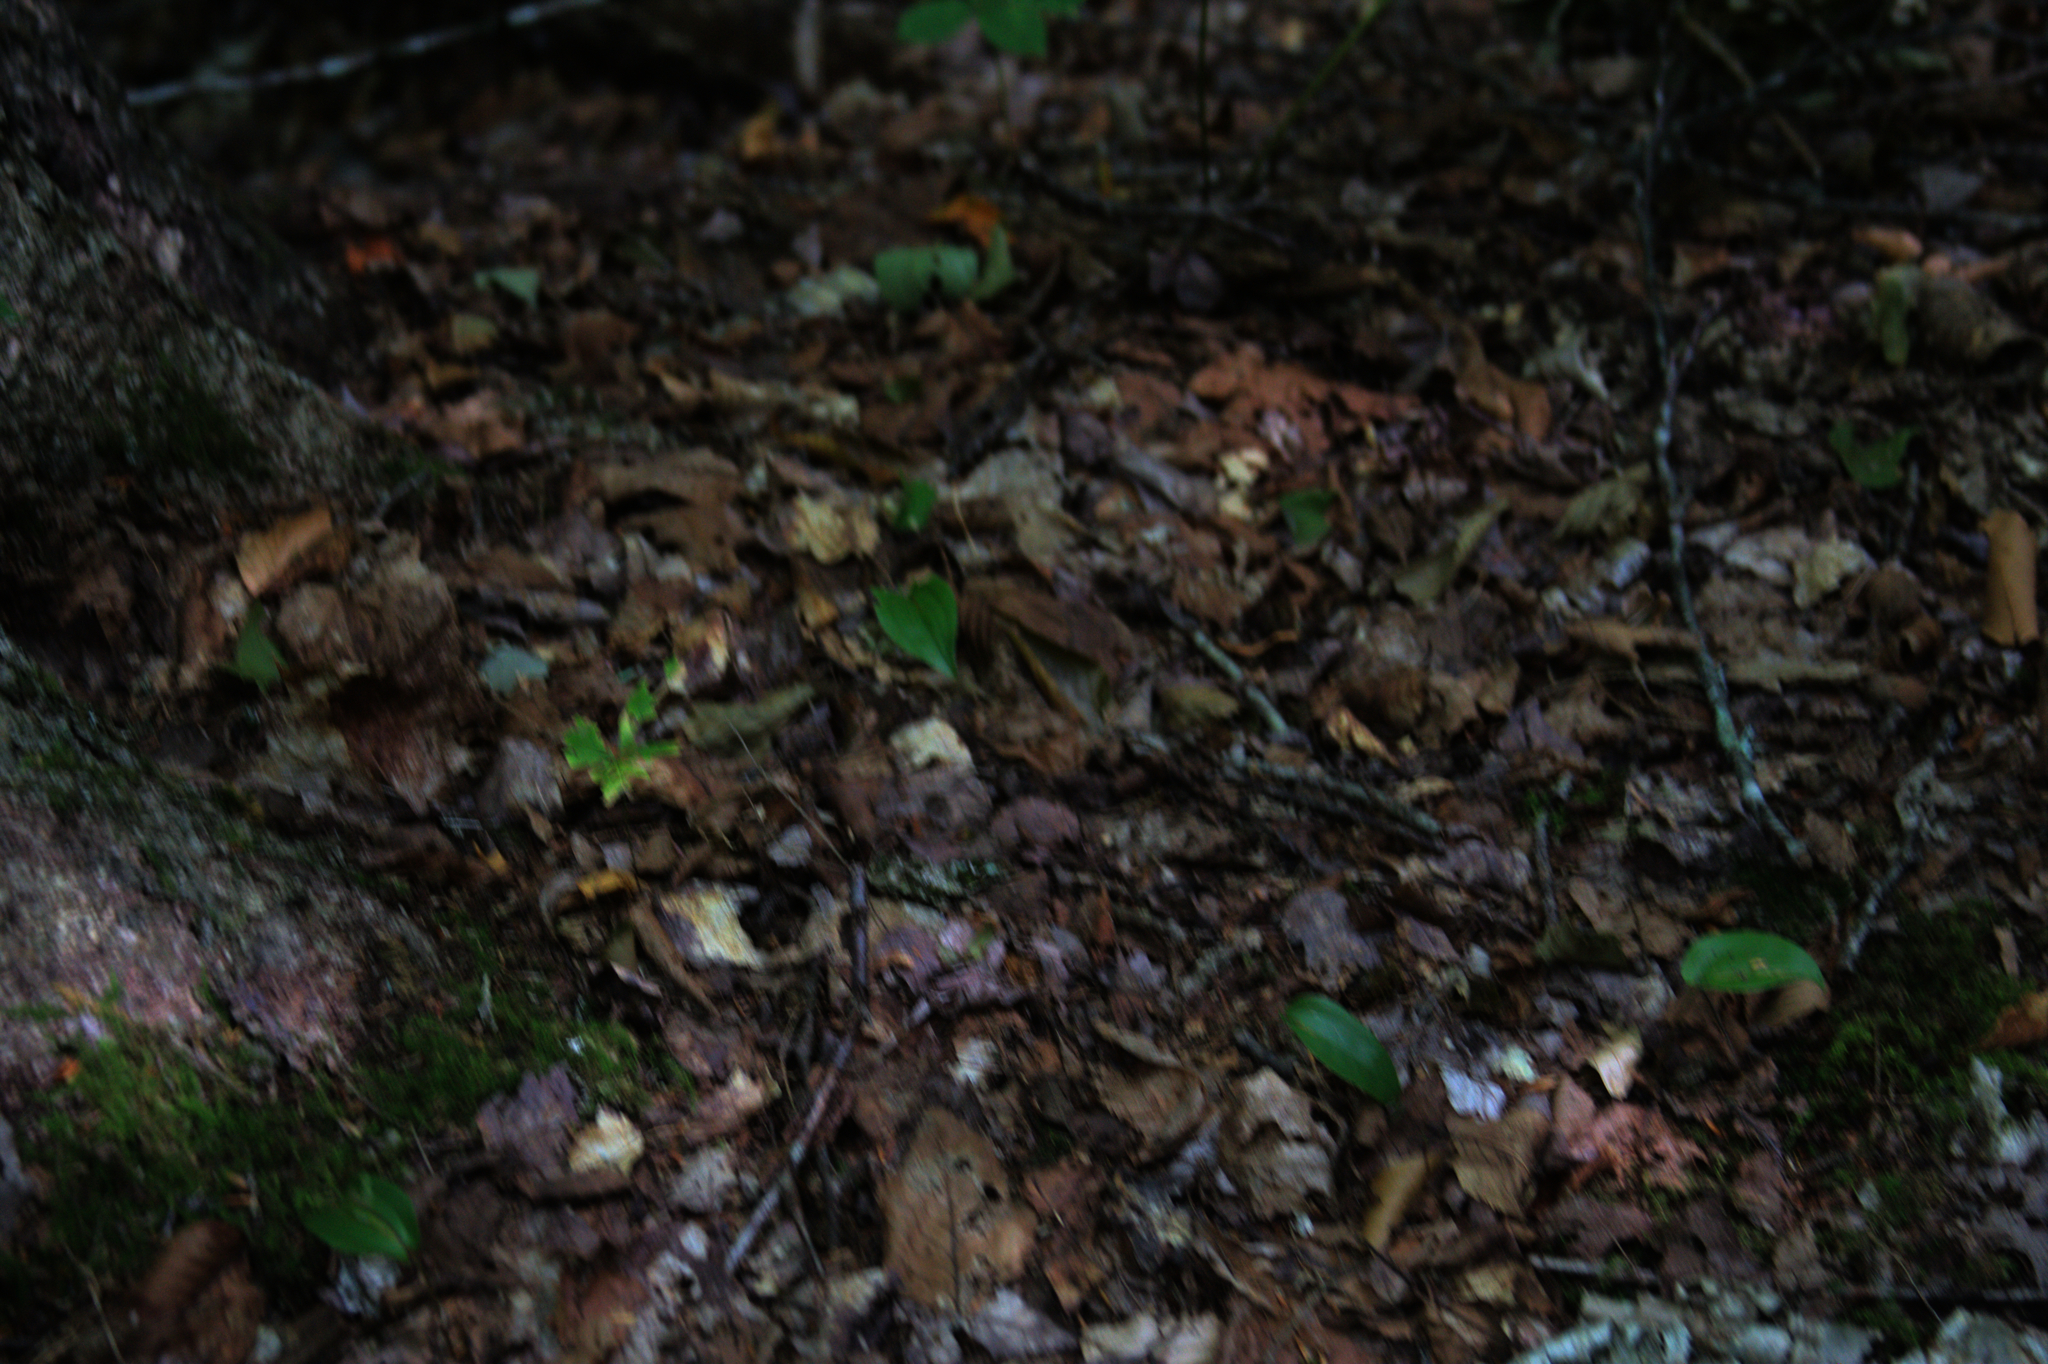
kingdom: Plantae
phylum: Tracheophyta
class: Liliopsida
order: Asparagales
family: Asparagaceae
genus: Maianthemum
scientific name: Maianthemum canadense
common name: False lily-of-the-valley
